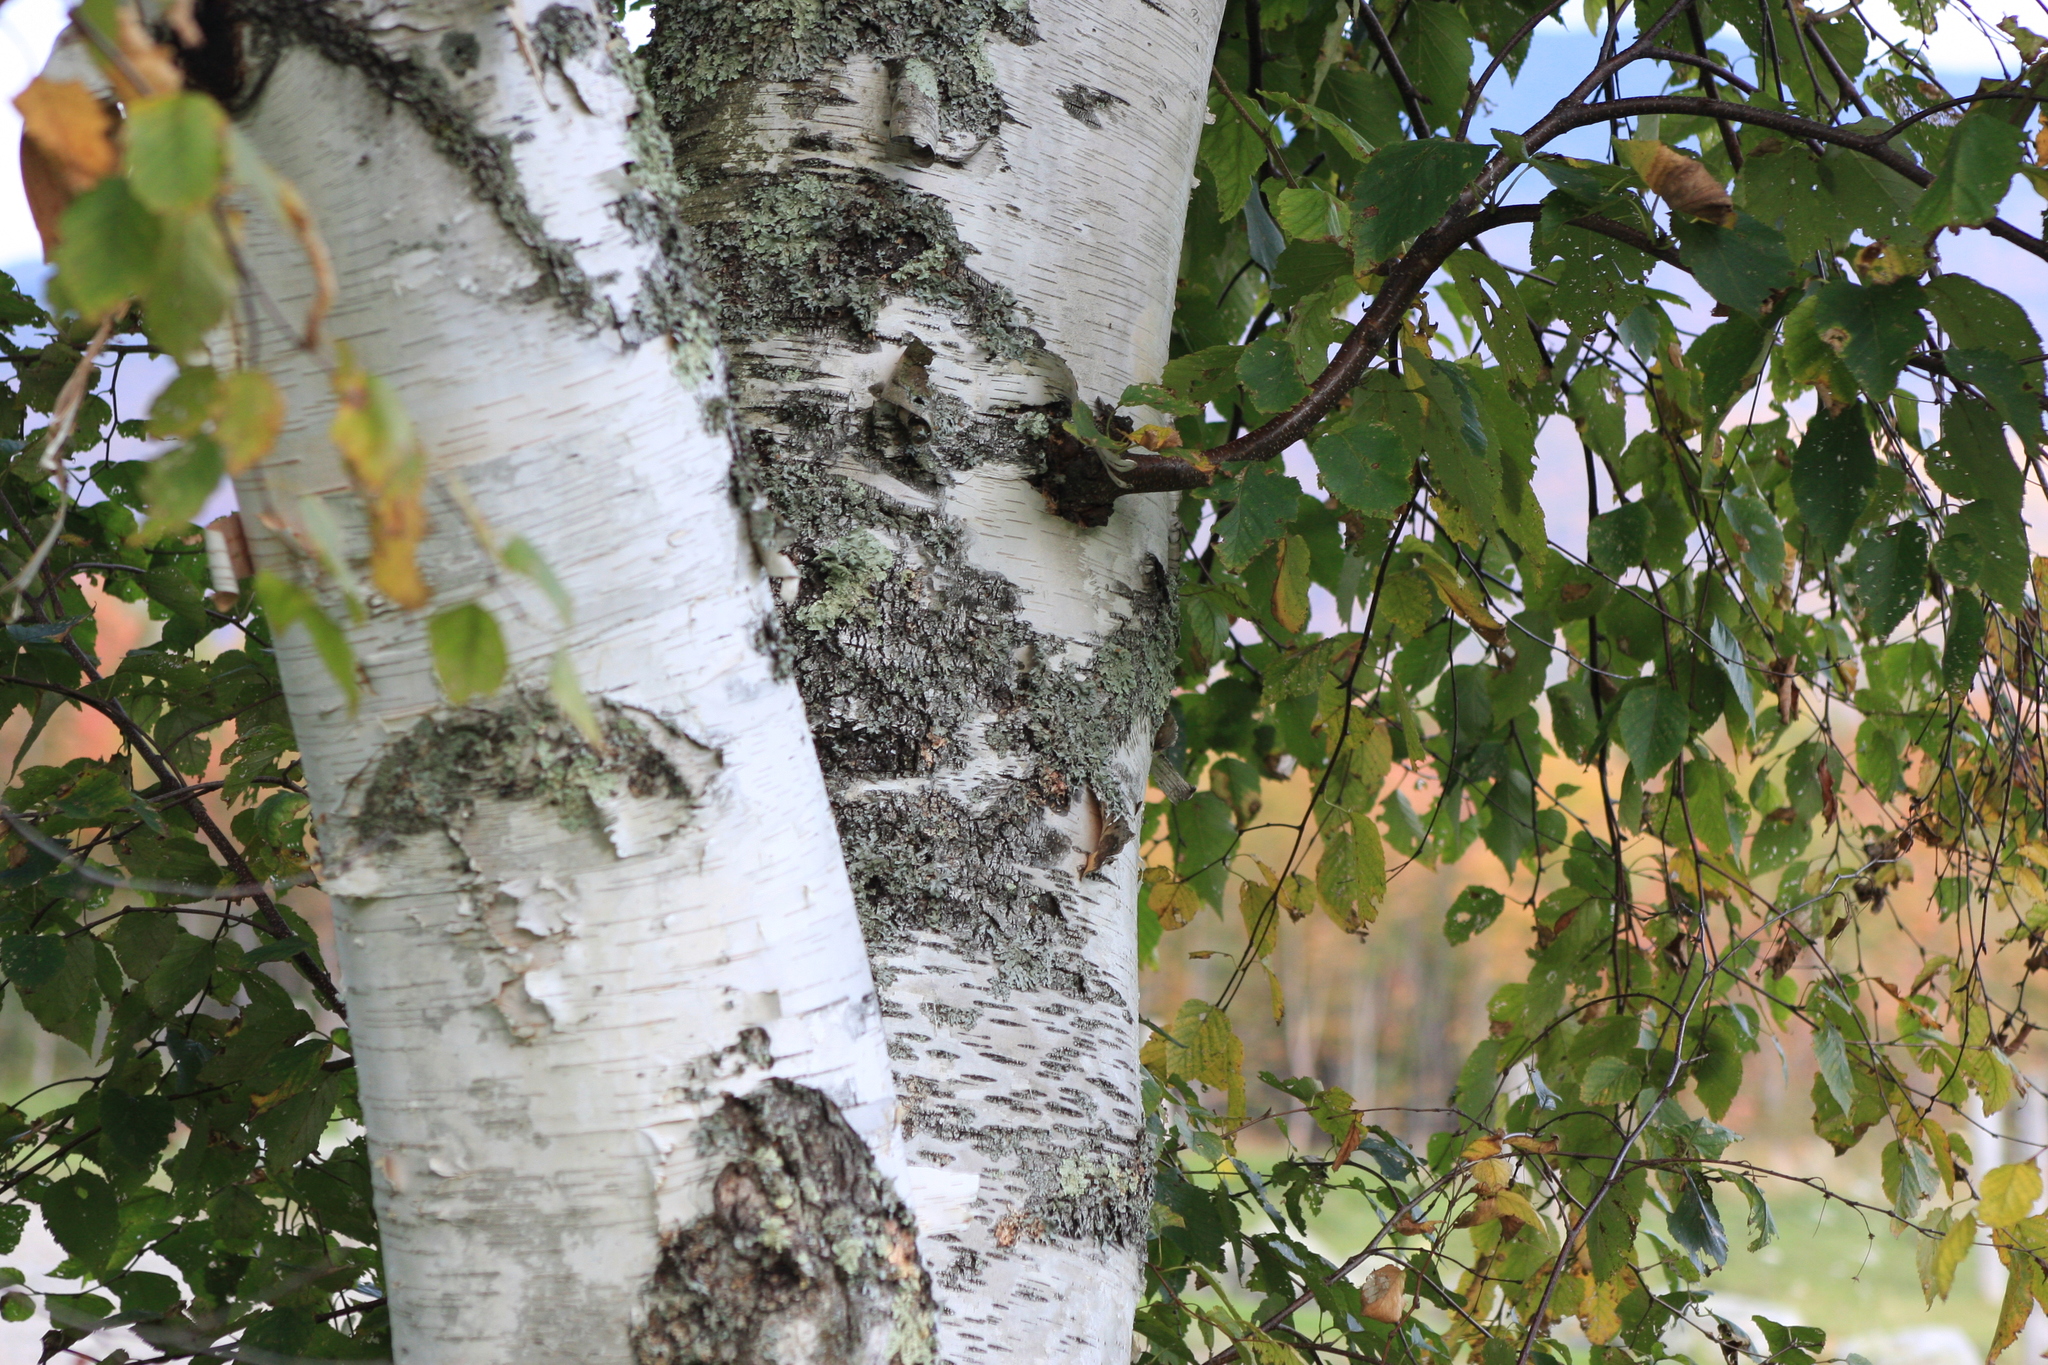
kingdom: Plantae
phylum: Tracheophyta
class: Magnoliopsida
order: Fagales
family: Betulaceae
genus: Betula
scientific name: Betula papyrifera
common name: Paper birch
